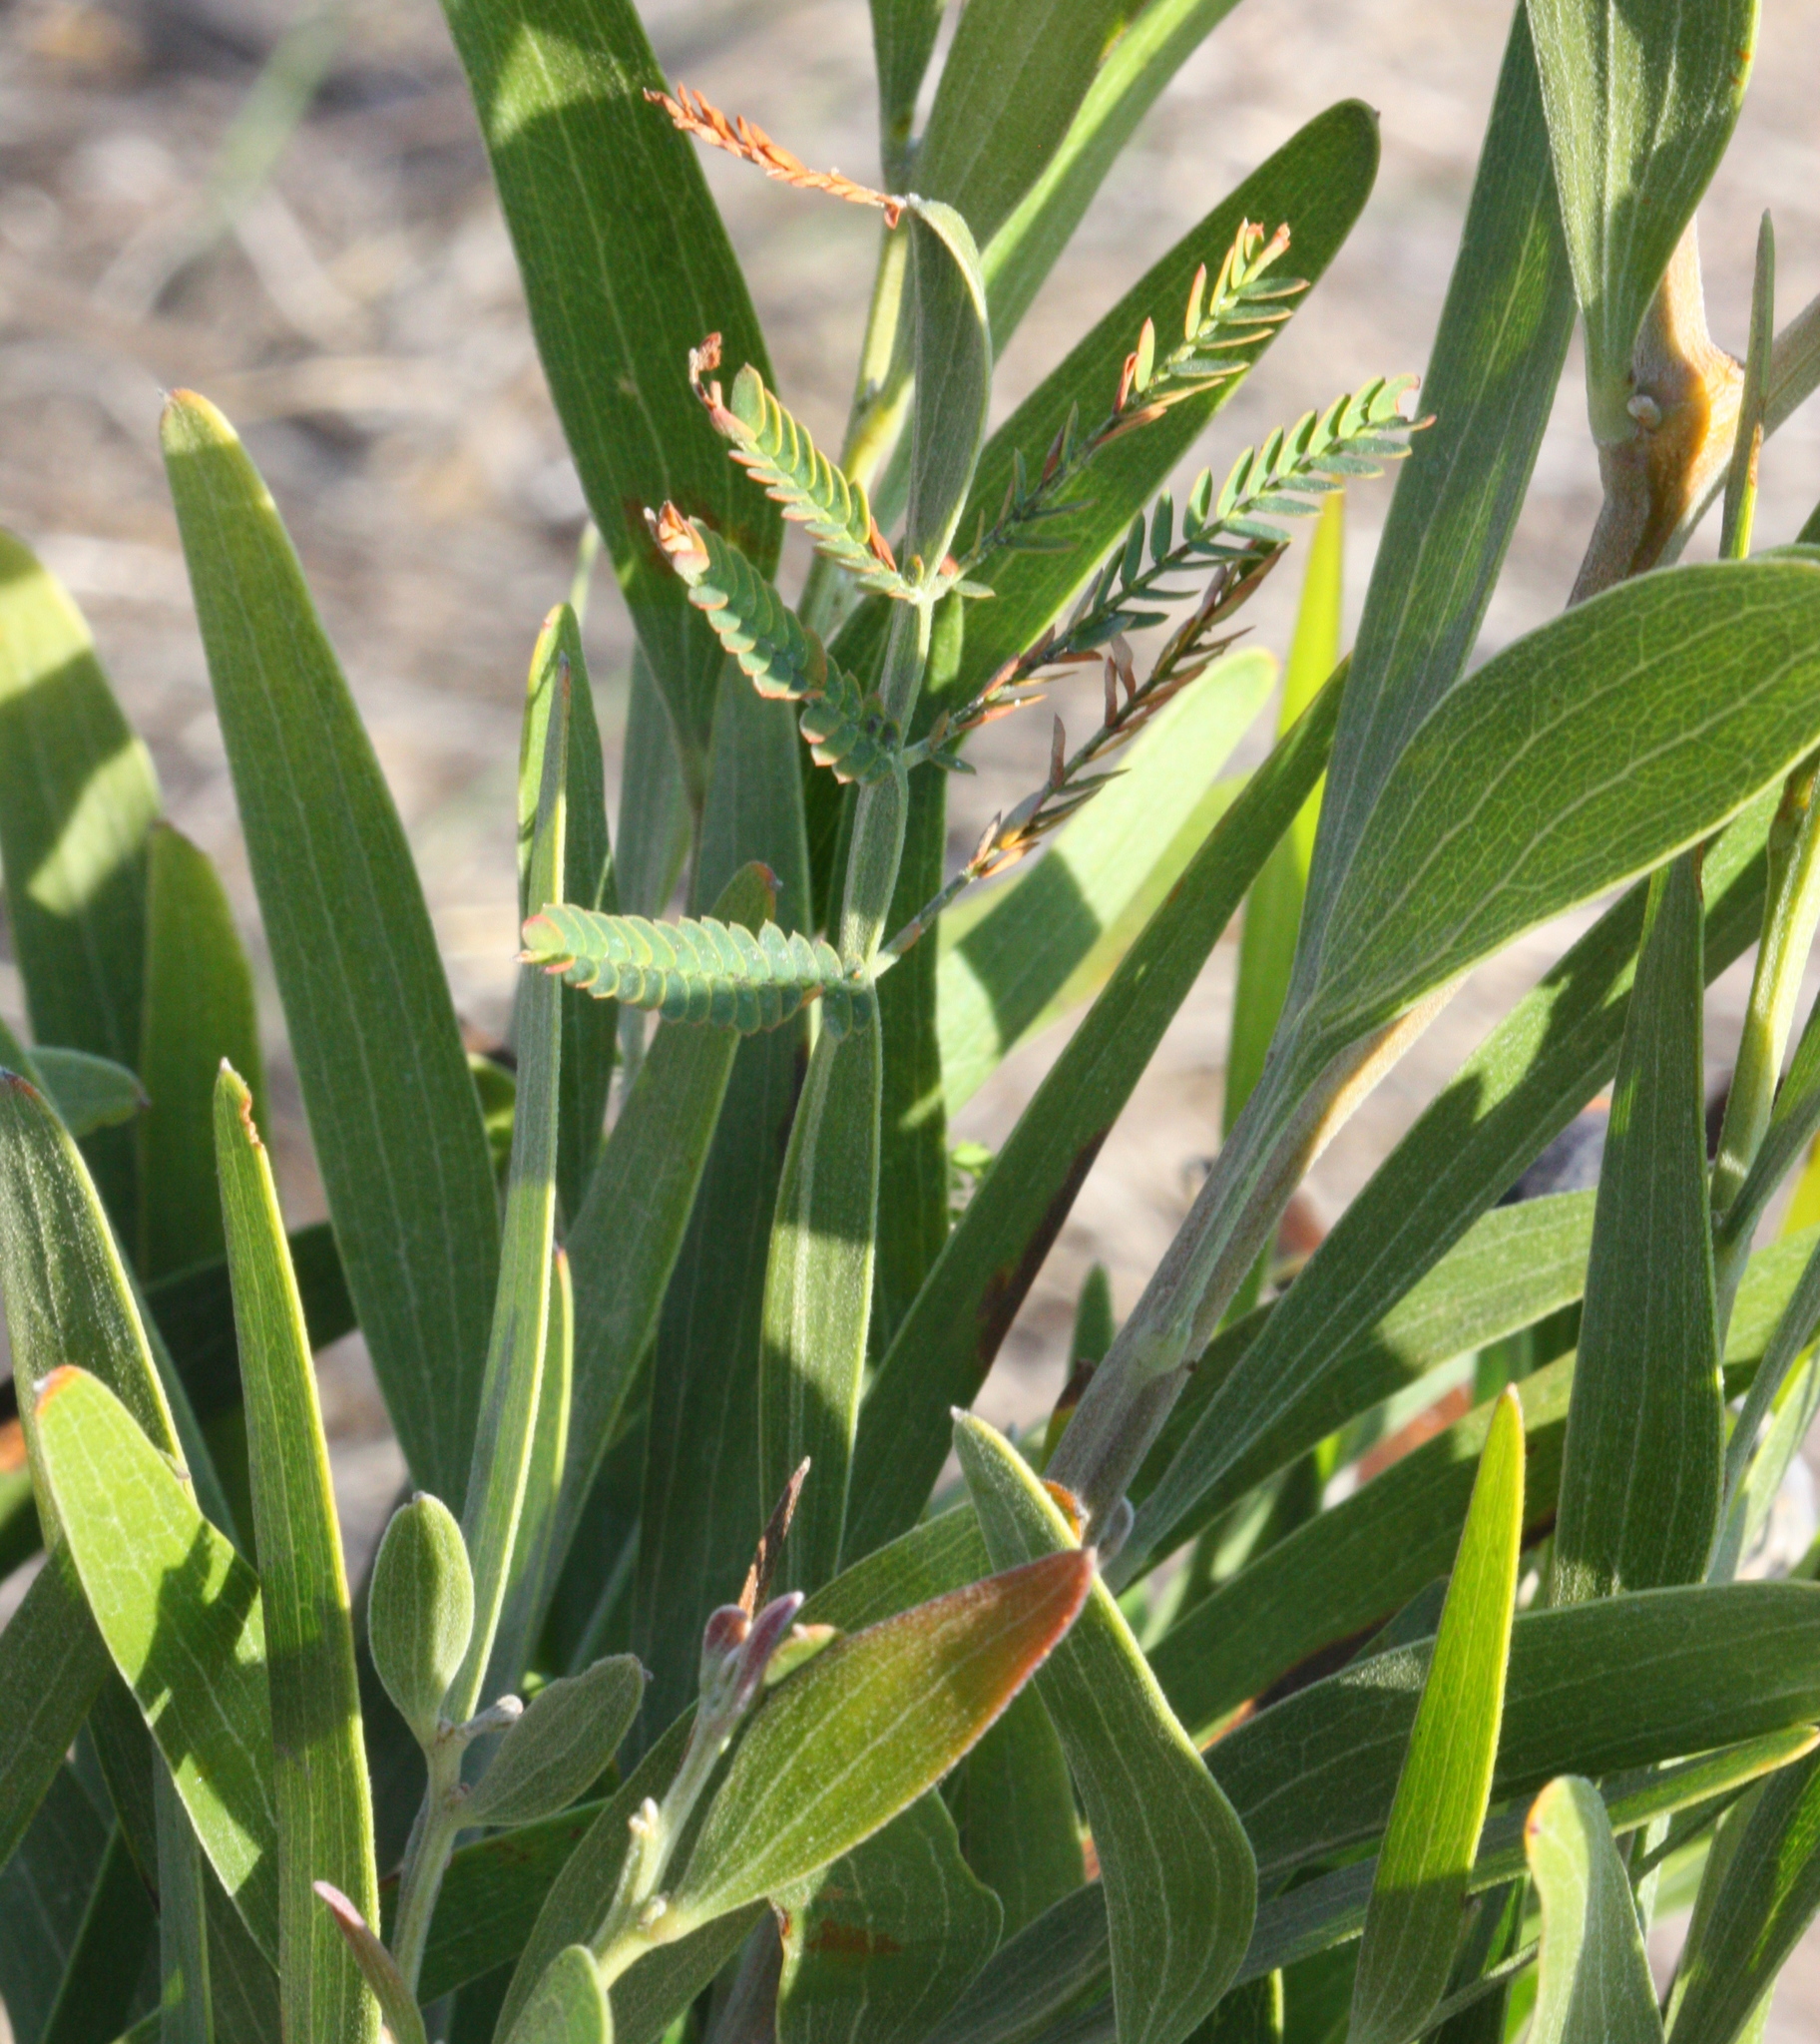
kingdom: Plantae
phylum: Tracheophyta
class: Magnoliopsida
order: Fabales
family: Fabaceae
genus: Acacia
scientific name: Acacia melanoxylon
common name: Blackwood
